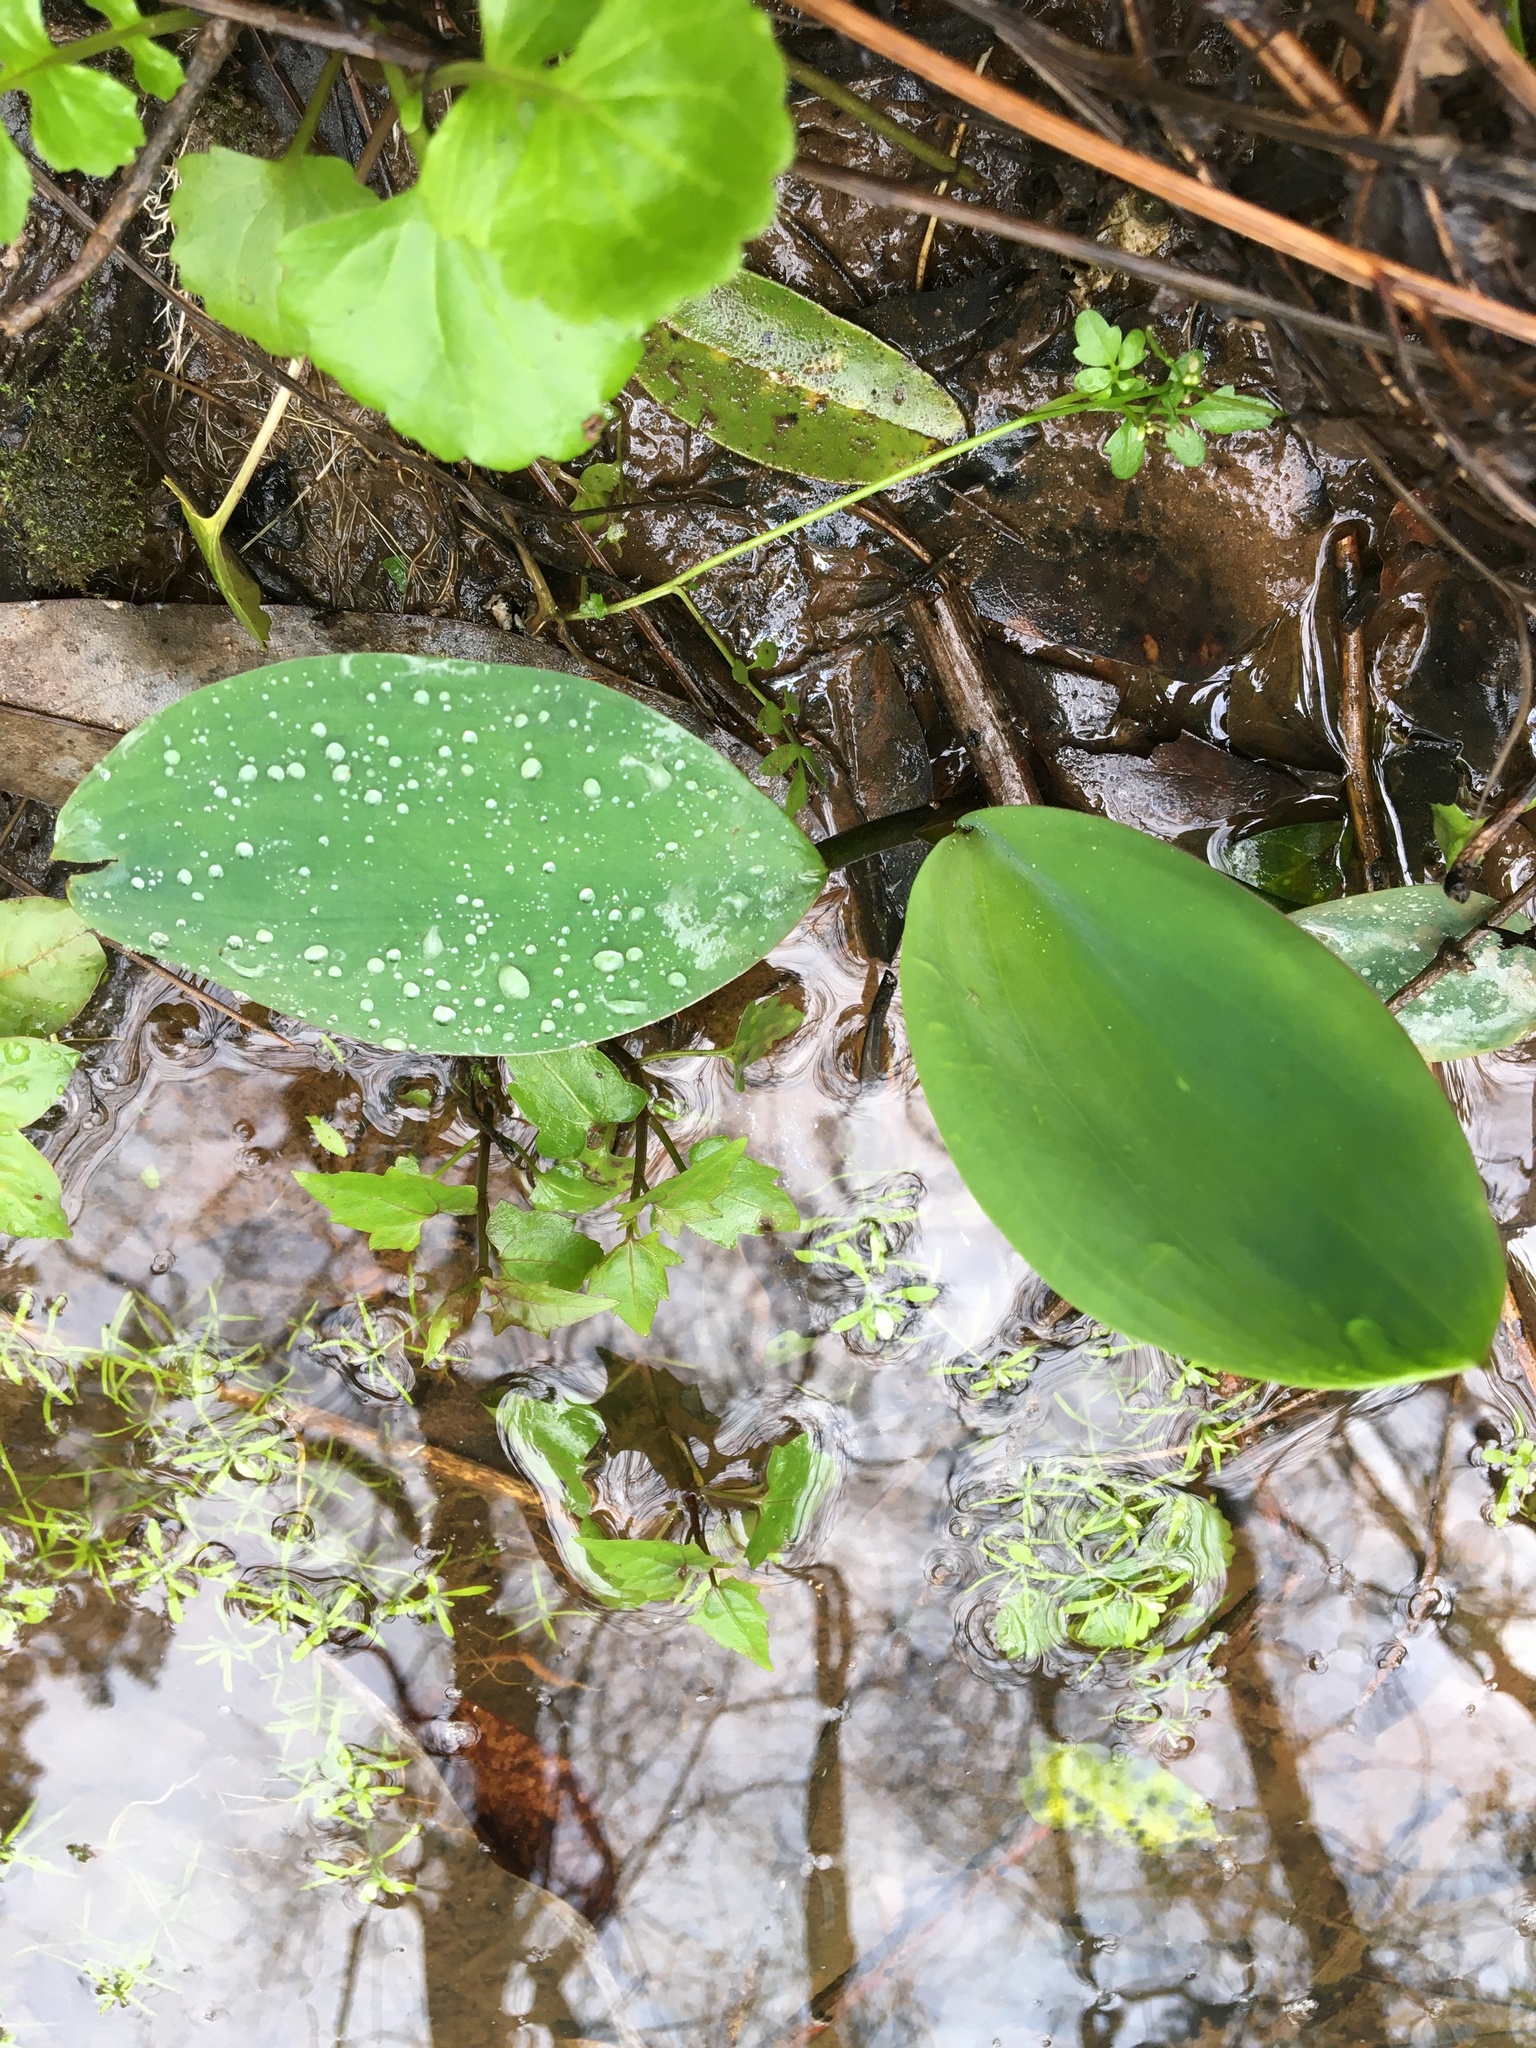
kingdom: Plantae
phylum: Tracheophyta
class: Liliopsida
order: Alismatales
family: Araceae
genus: Orontium
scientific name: Orontium aquaticum
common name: Golden-club
